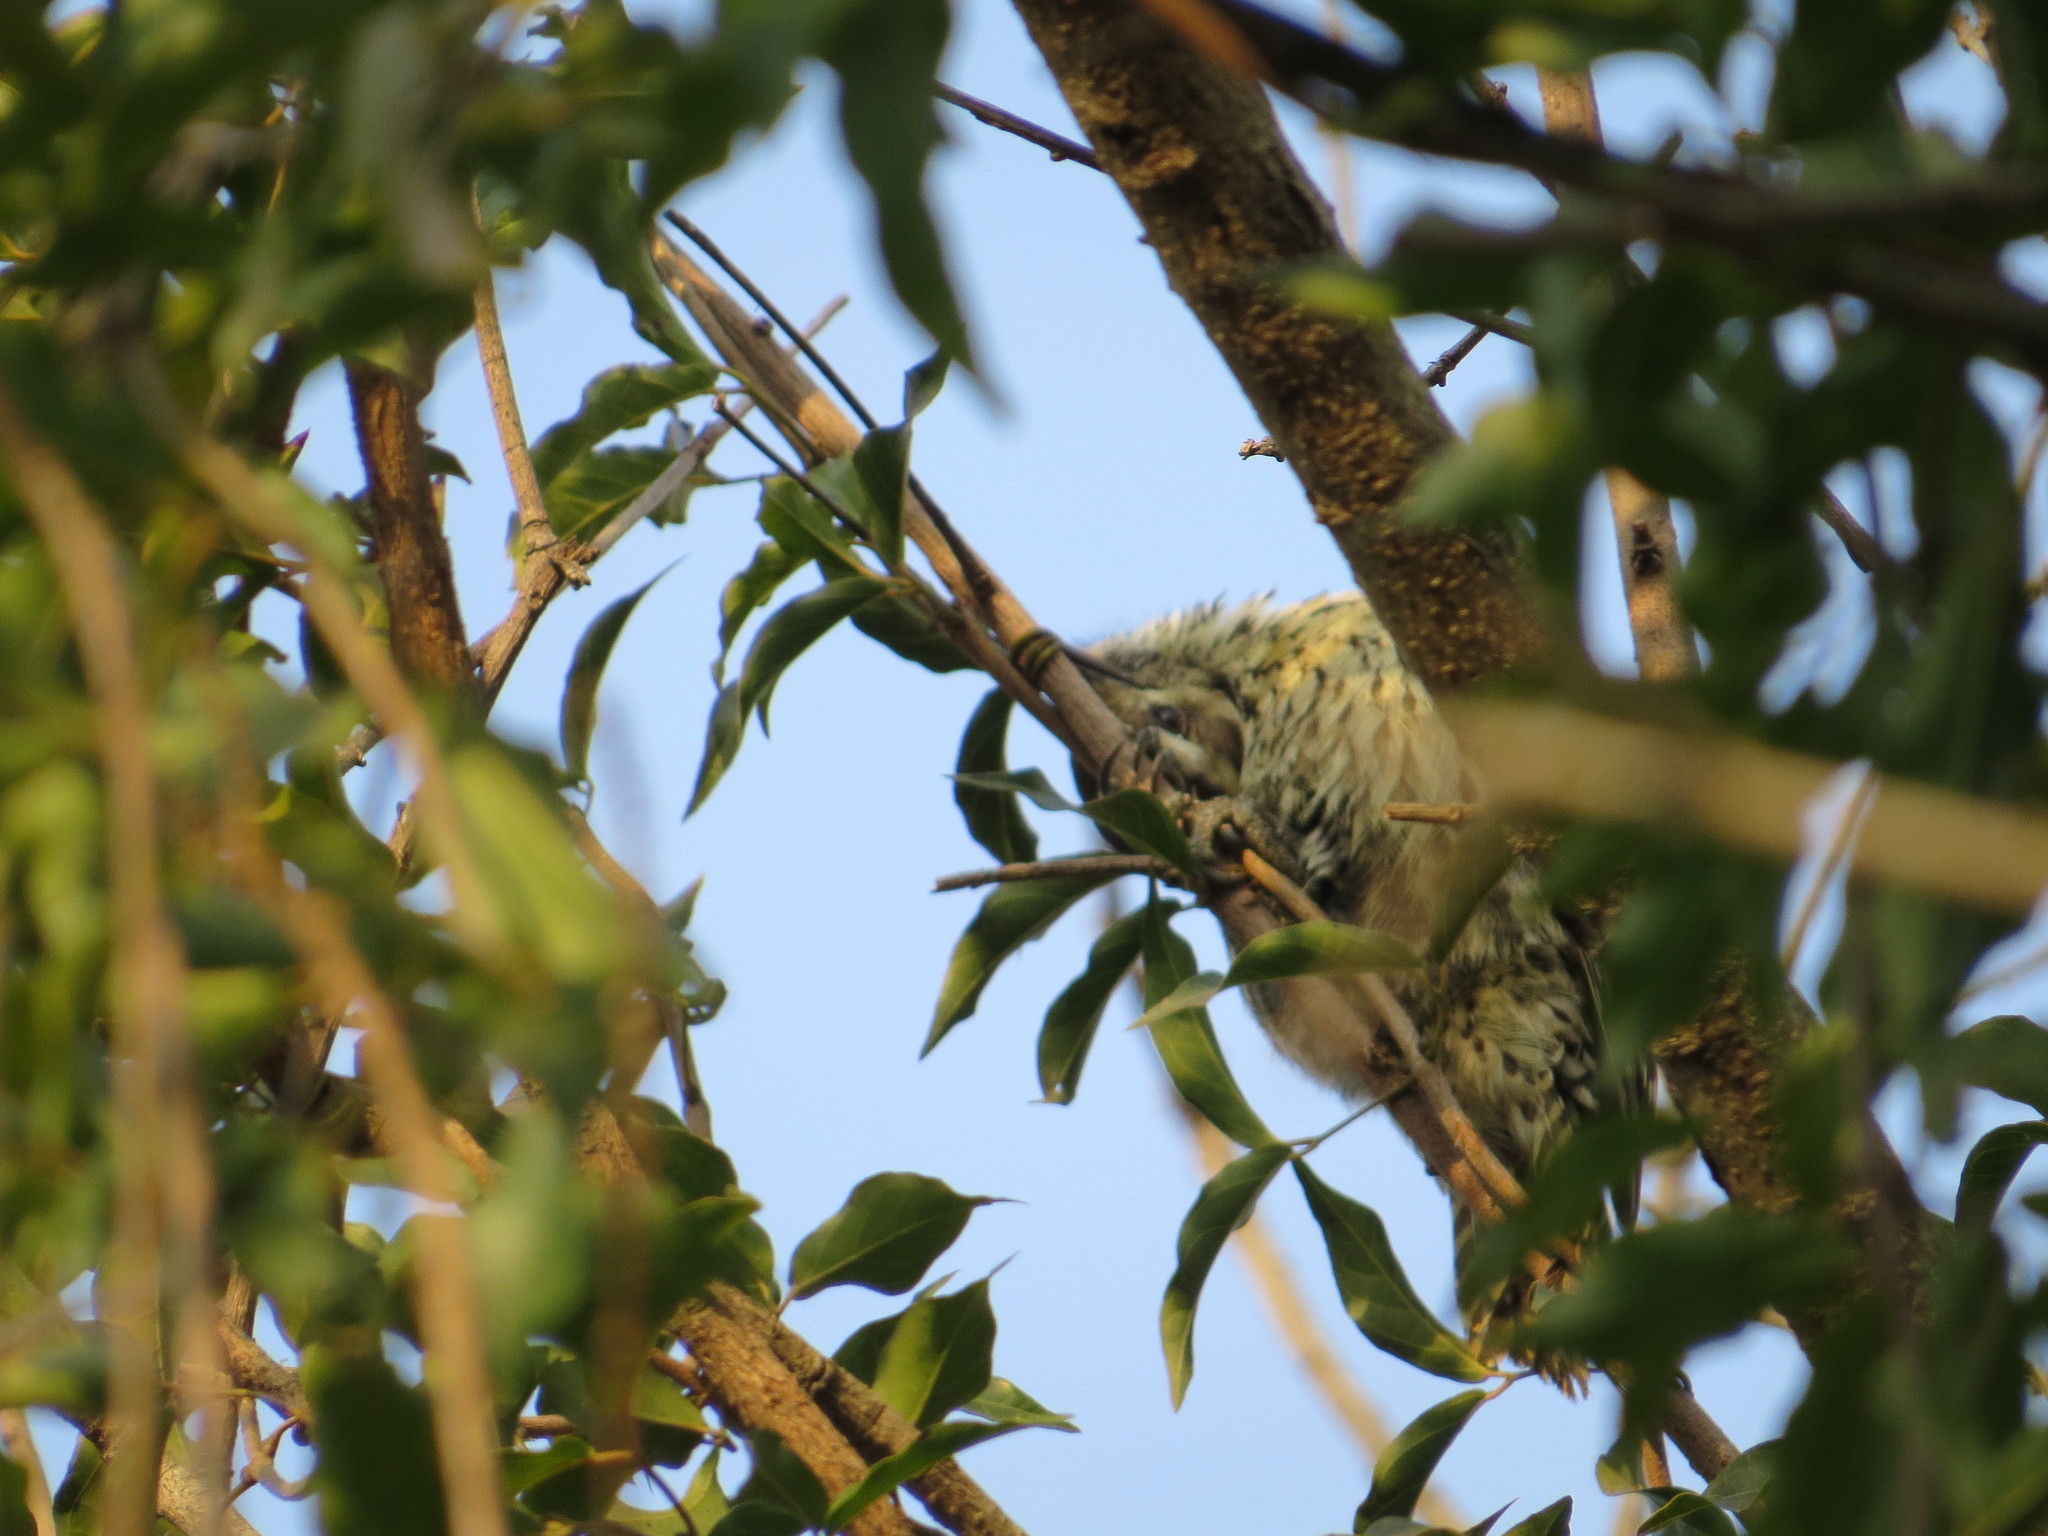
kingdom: Animalia
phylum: Chordata
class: Aves
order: Piciformes
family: Picidae
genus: Veniliornis
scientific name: Veniliornis mixtus
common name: Checkered woodpecker
